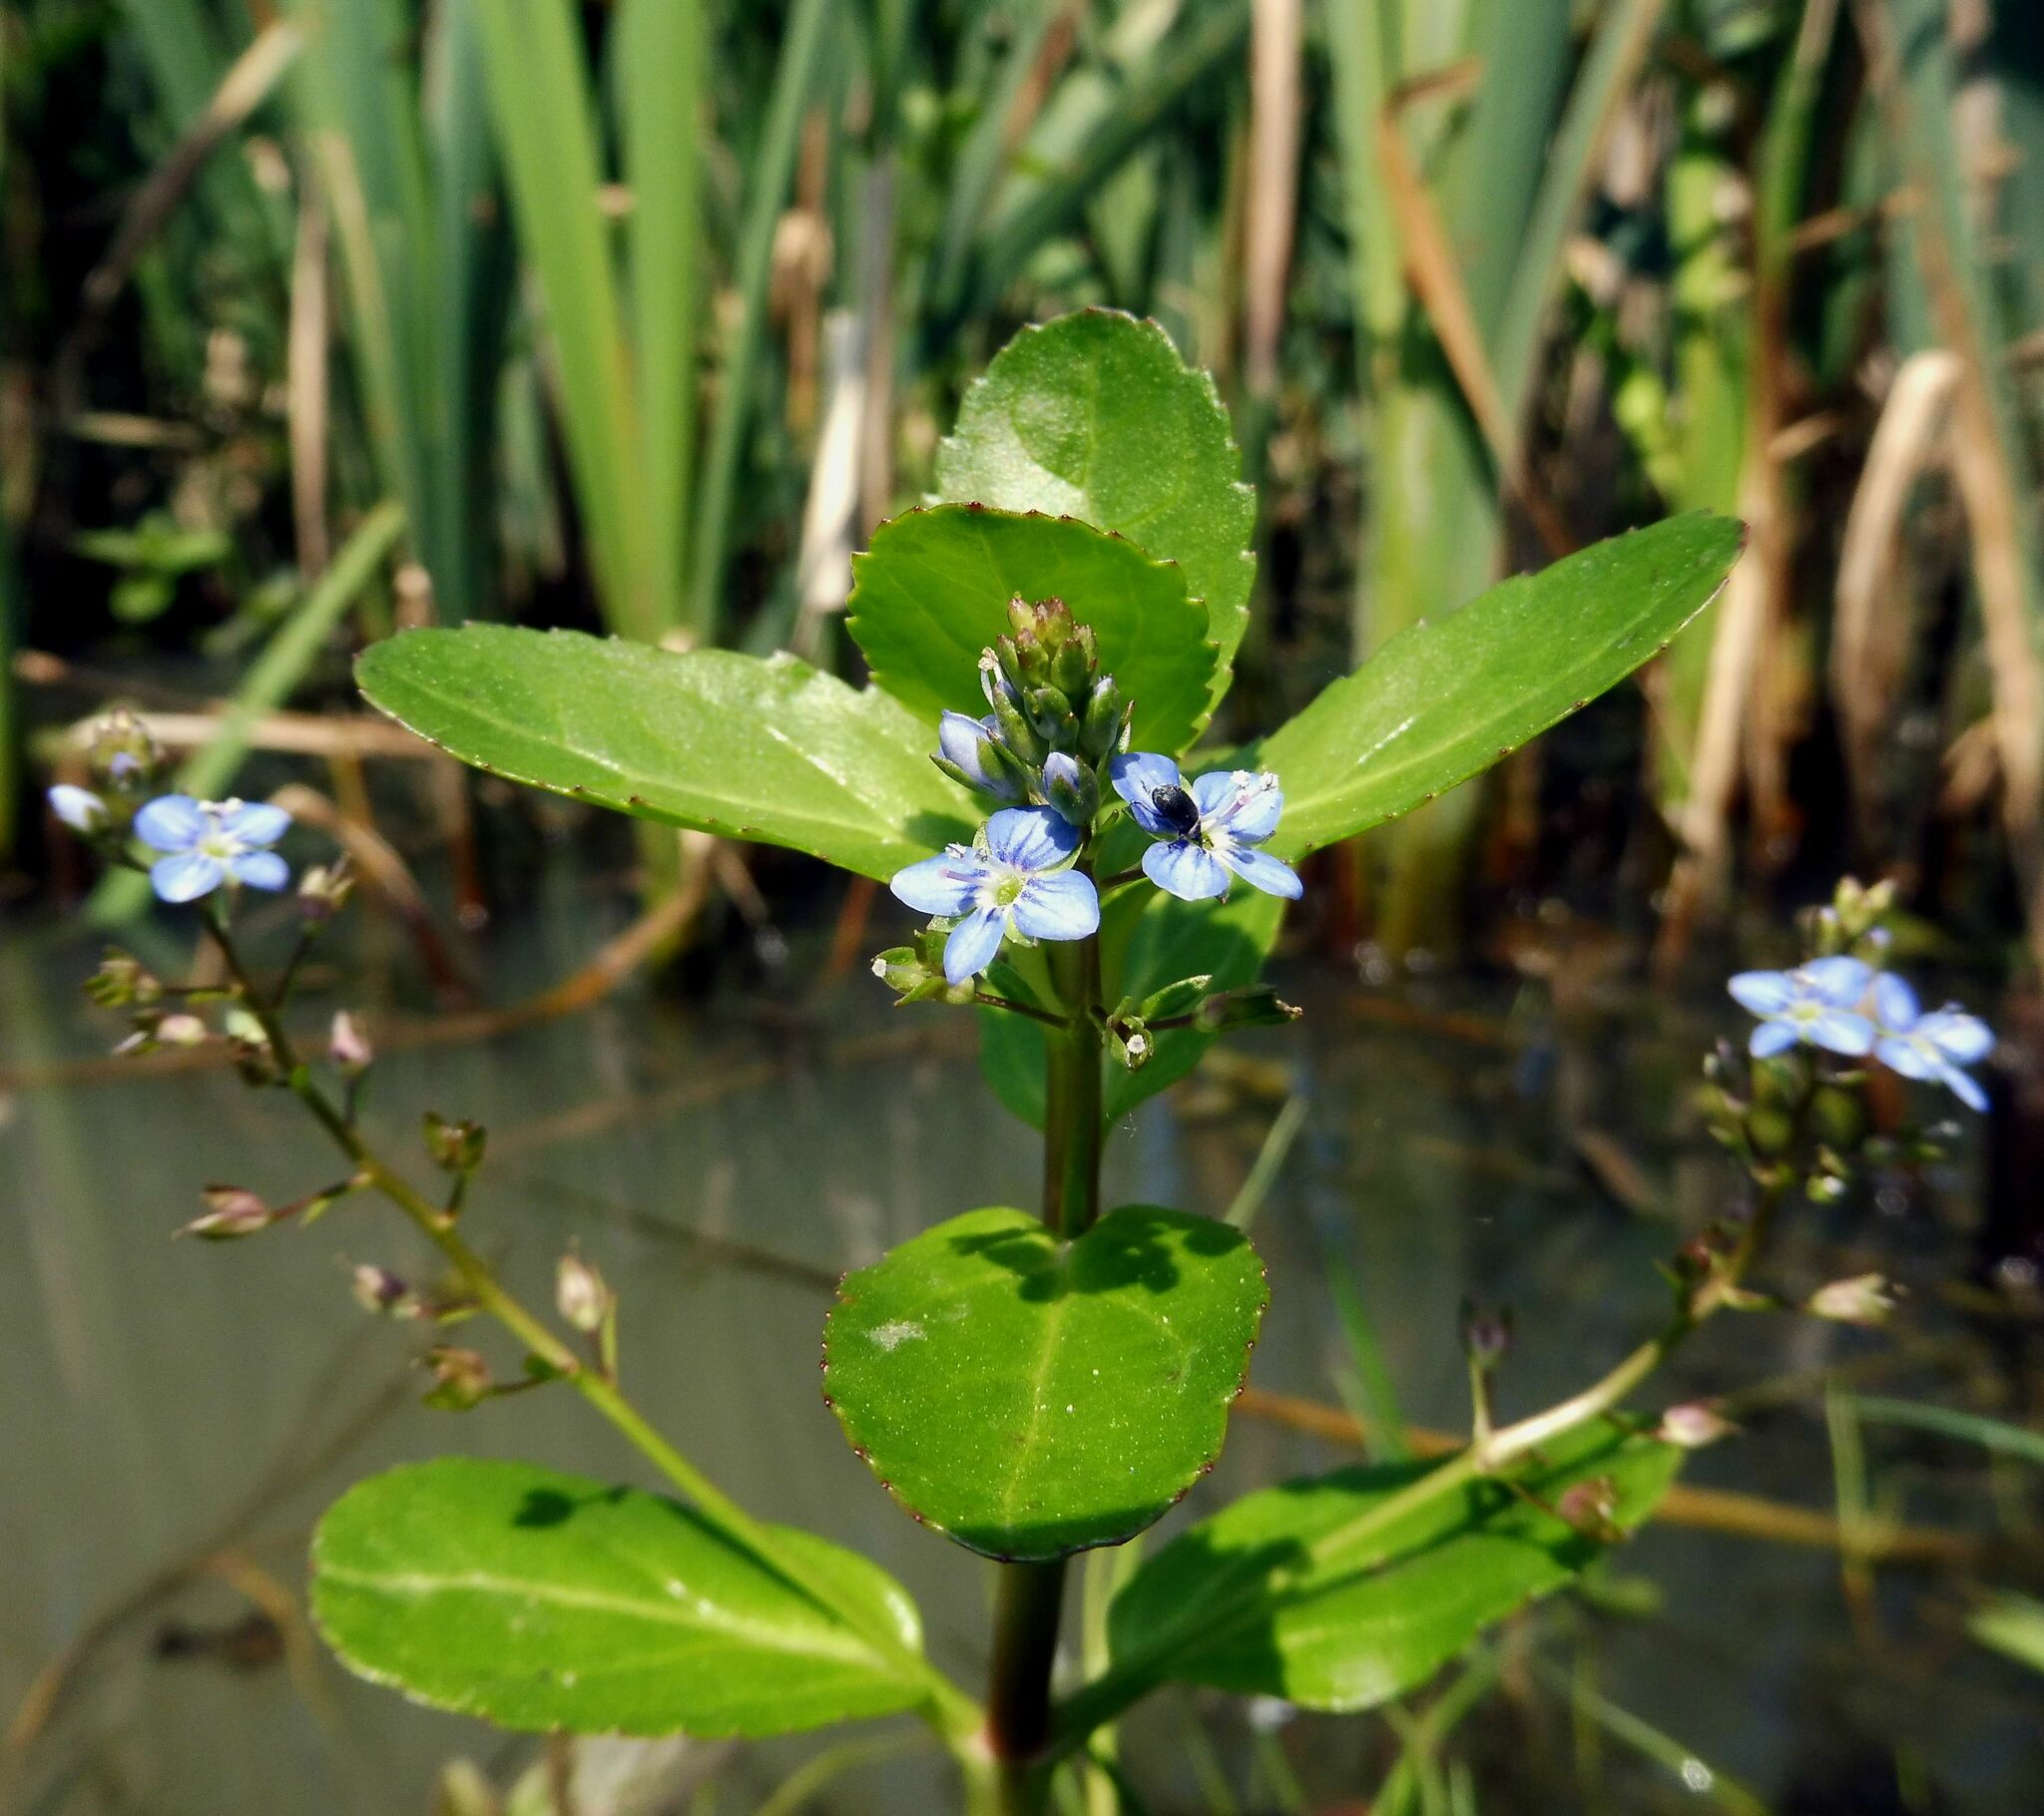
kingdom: Plantae
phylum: Tracheophyta
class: Magnoliopsida
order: Lamiales
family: Plantaginaceae
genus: Veronica
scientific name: Veronica beccabunga
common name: Brooklime
